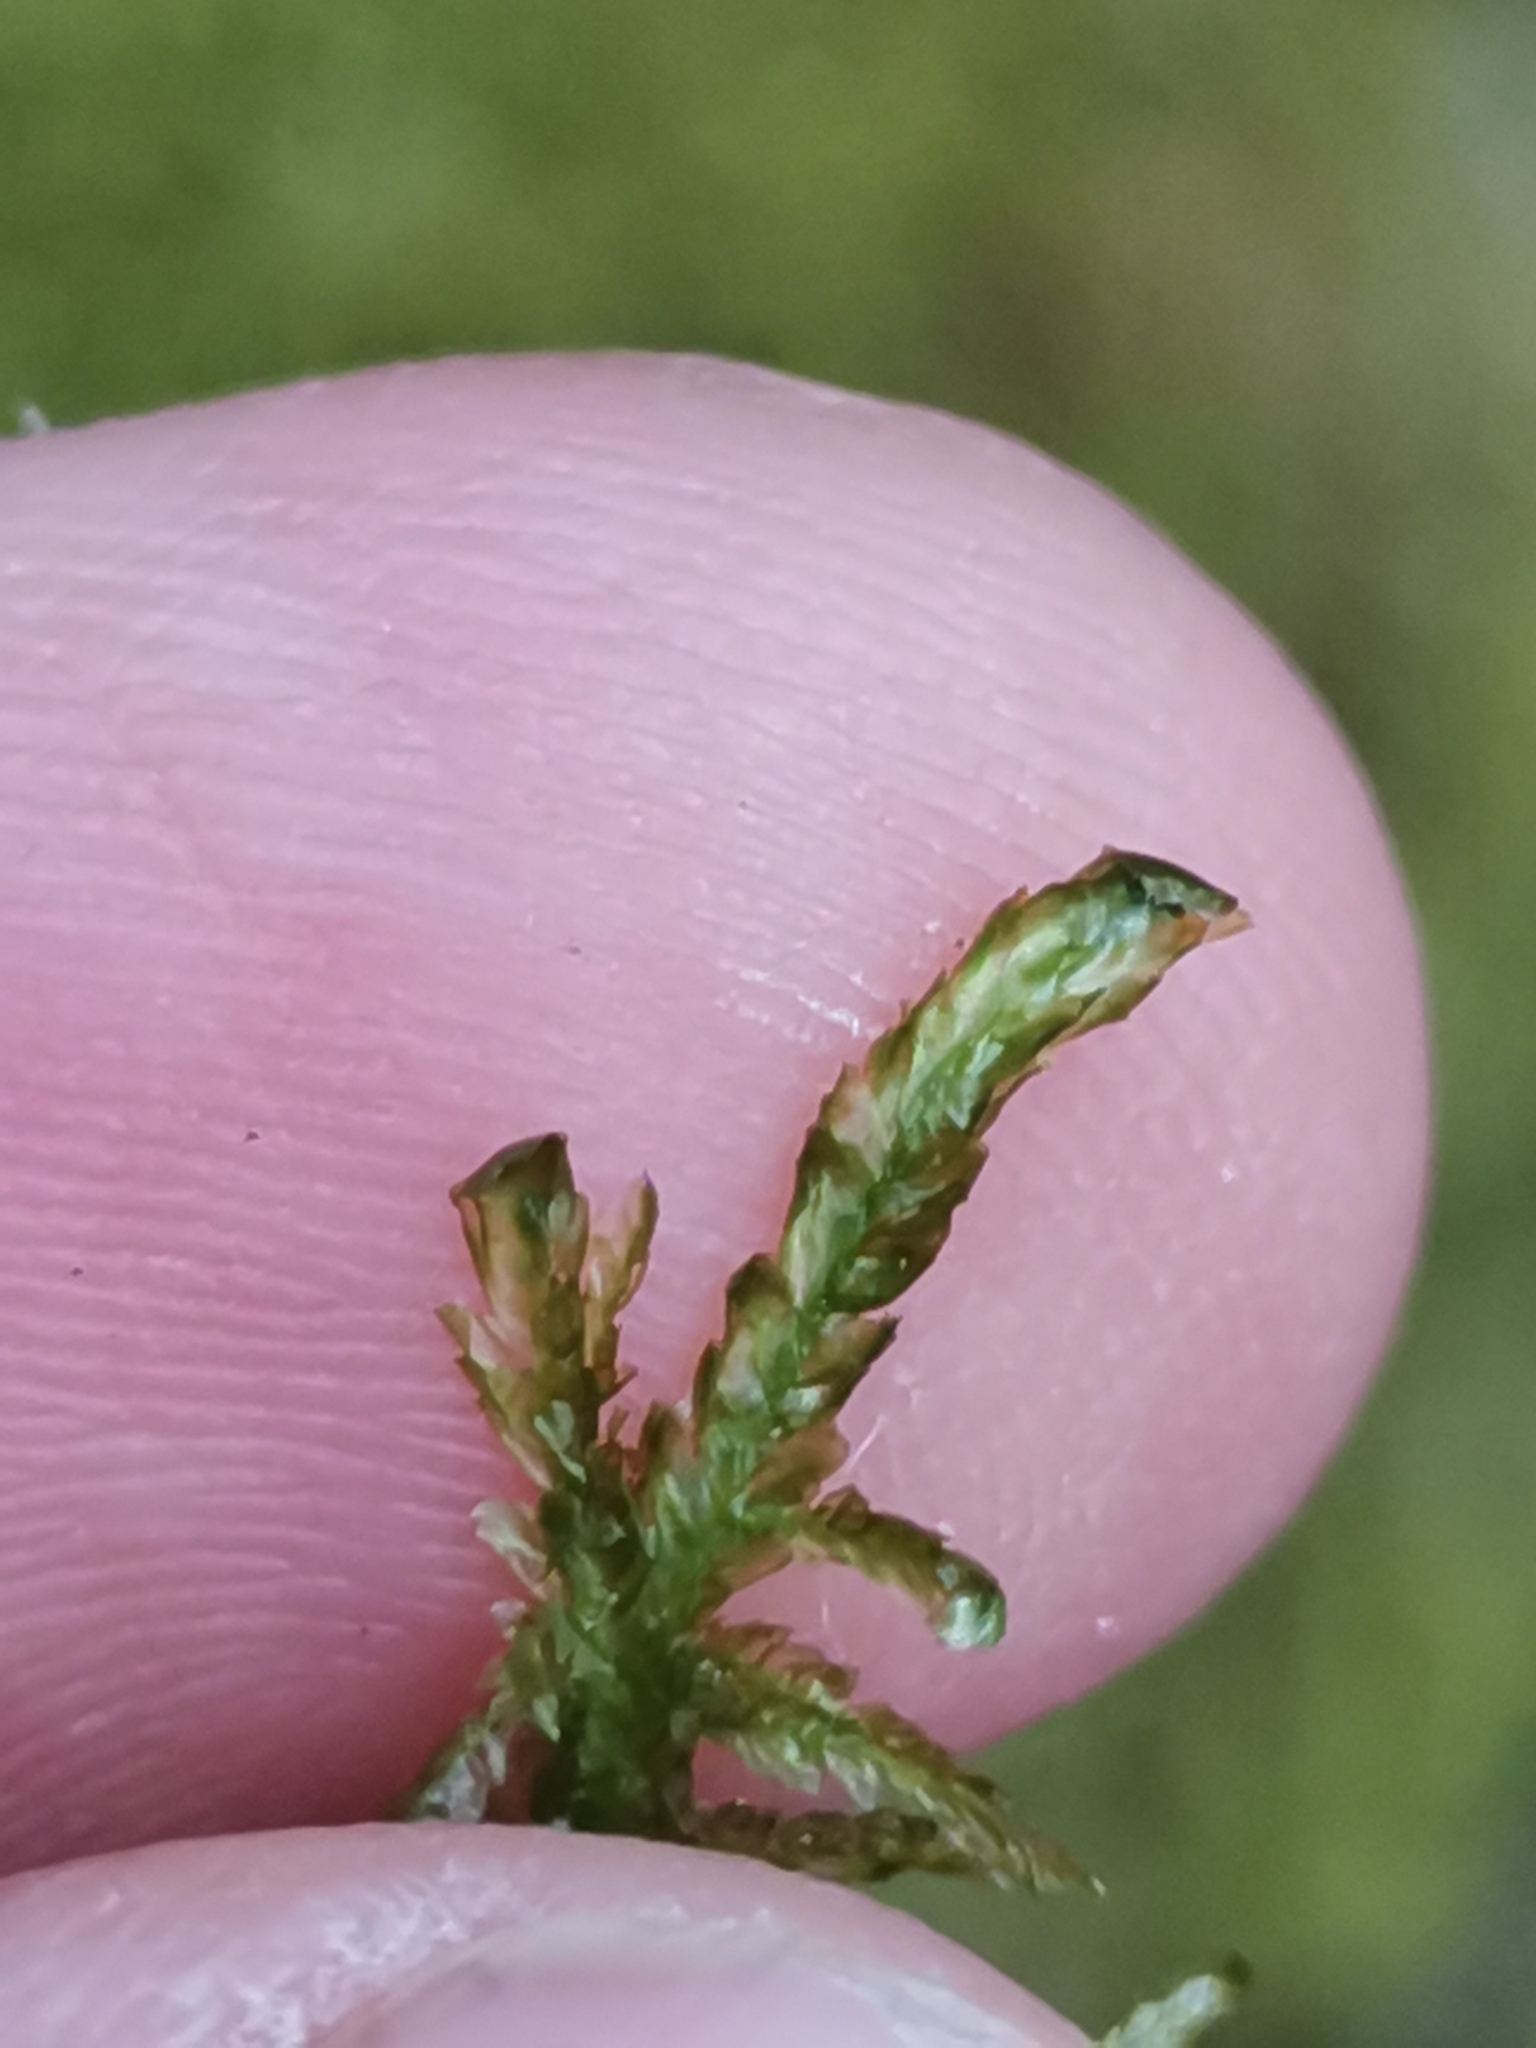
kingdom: Plantae
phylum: Bryophyta
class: Bryopsida
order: Hypnales
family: Neckeraceae
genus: Alleniella
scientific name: Alleniella complanata
